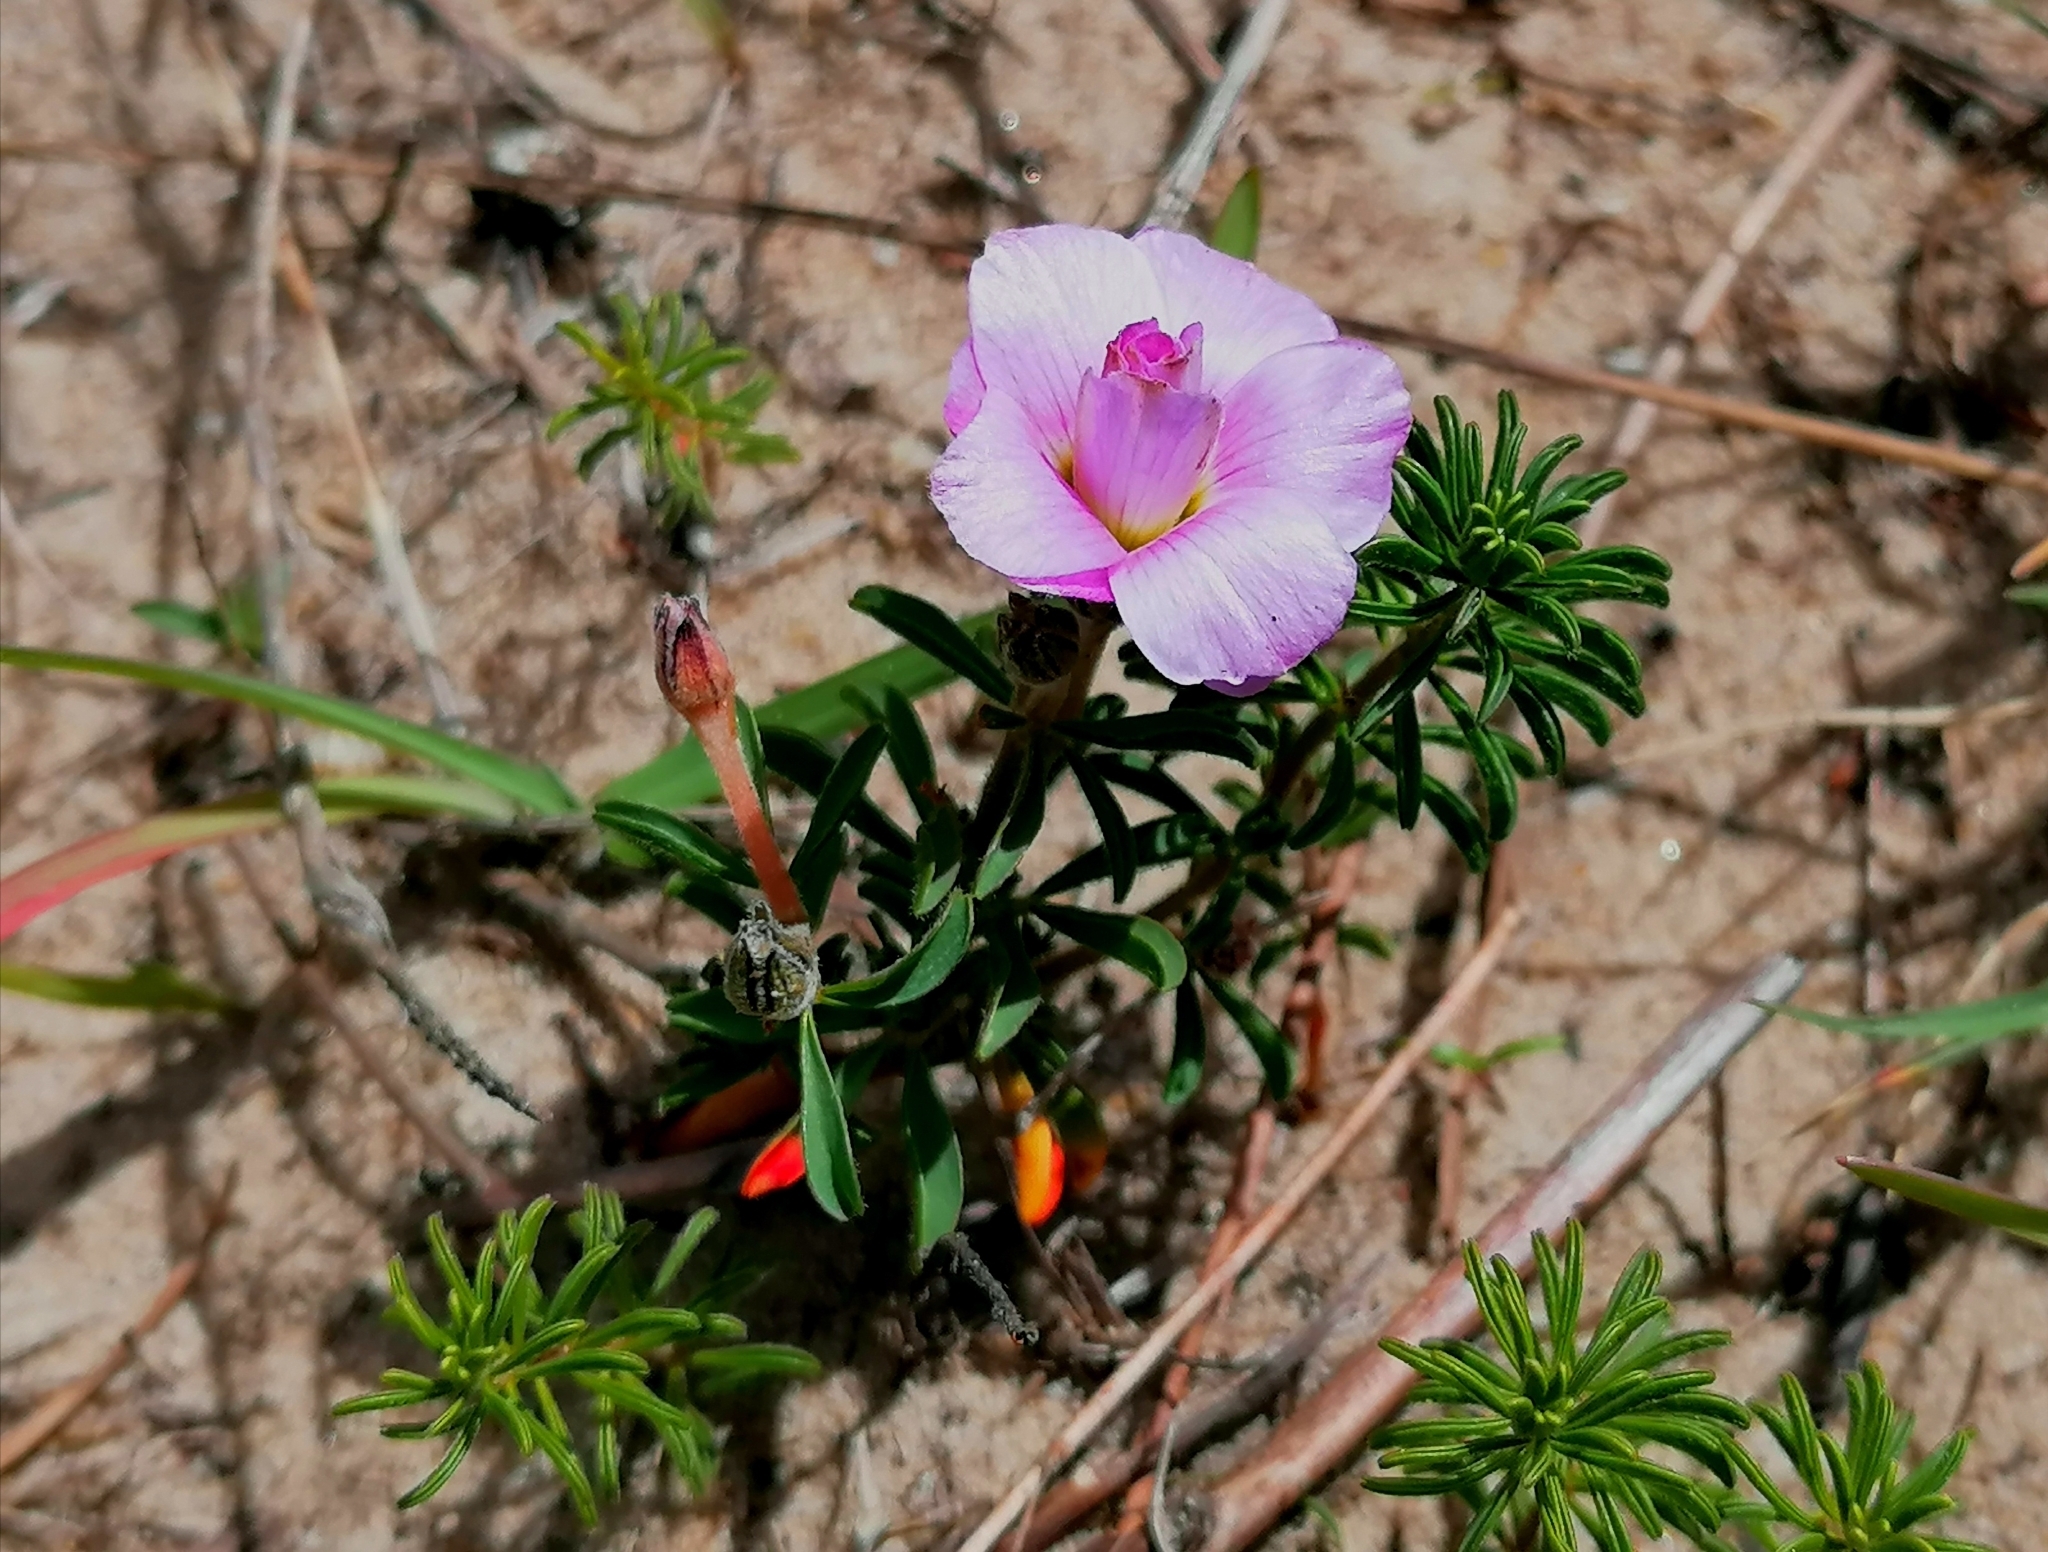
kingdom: Plantae
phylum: Tracheophyta
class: Magnoliopsida
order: Oxalidales
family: Oxalidaceae
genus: Oxalis
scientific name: Oxalis hirta
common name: Tropical woodsorrel
